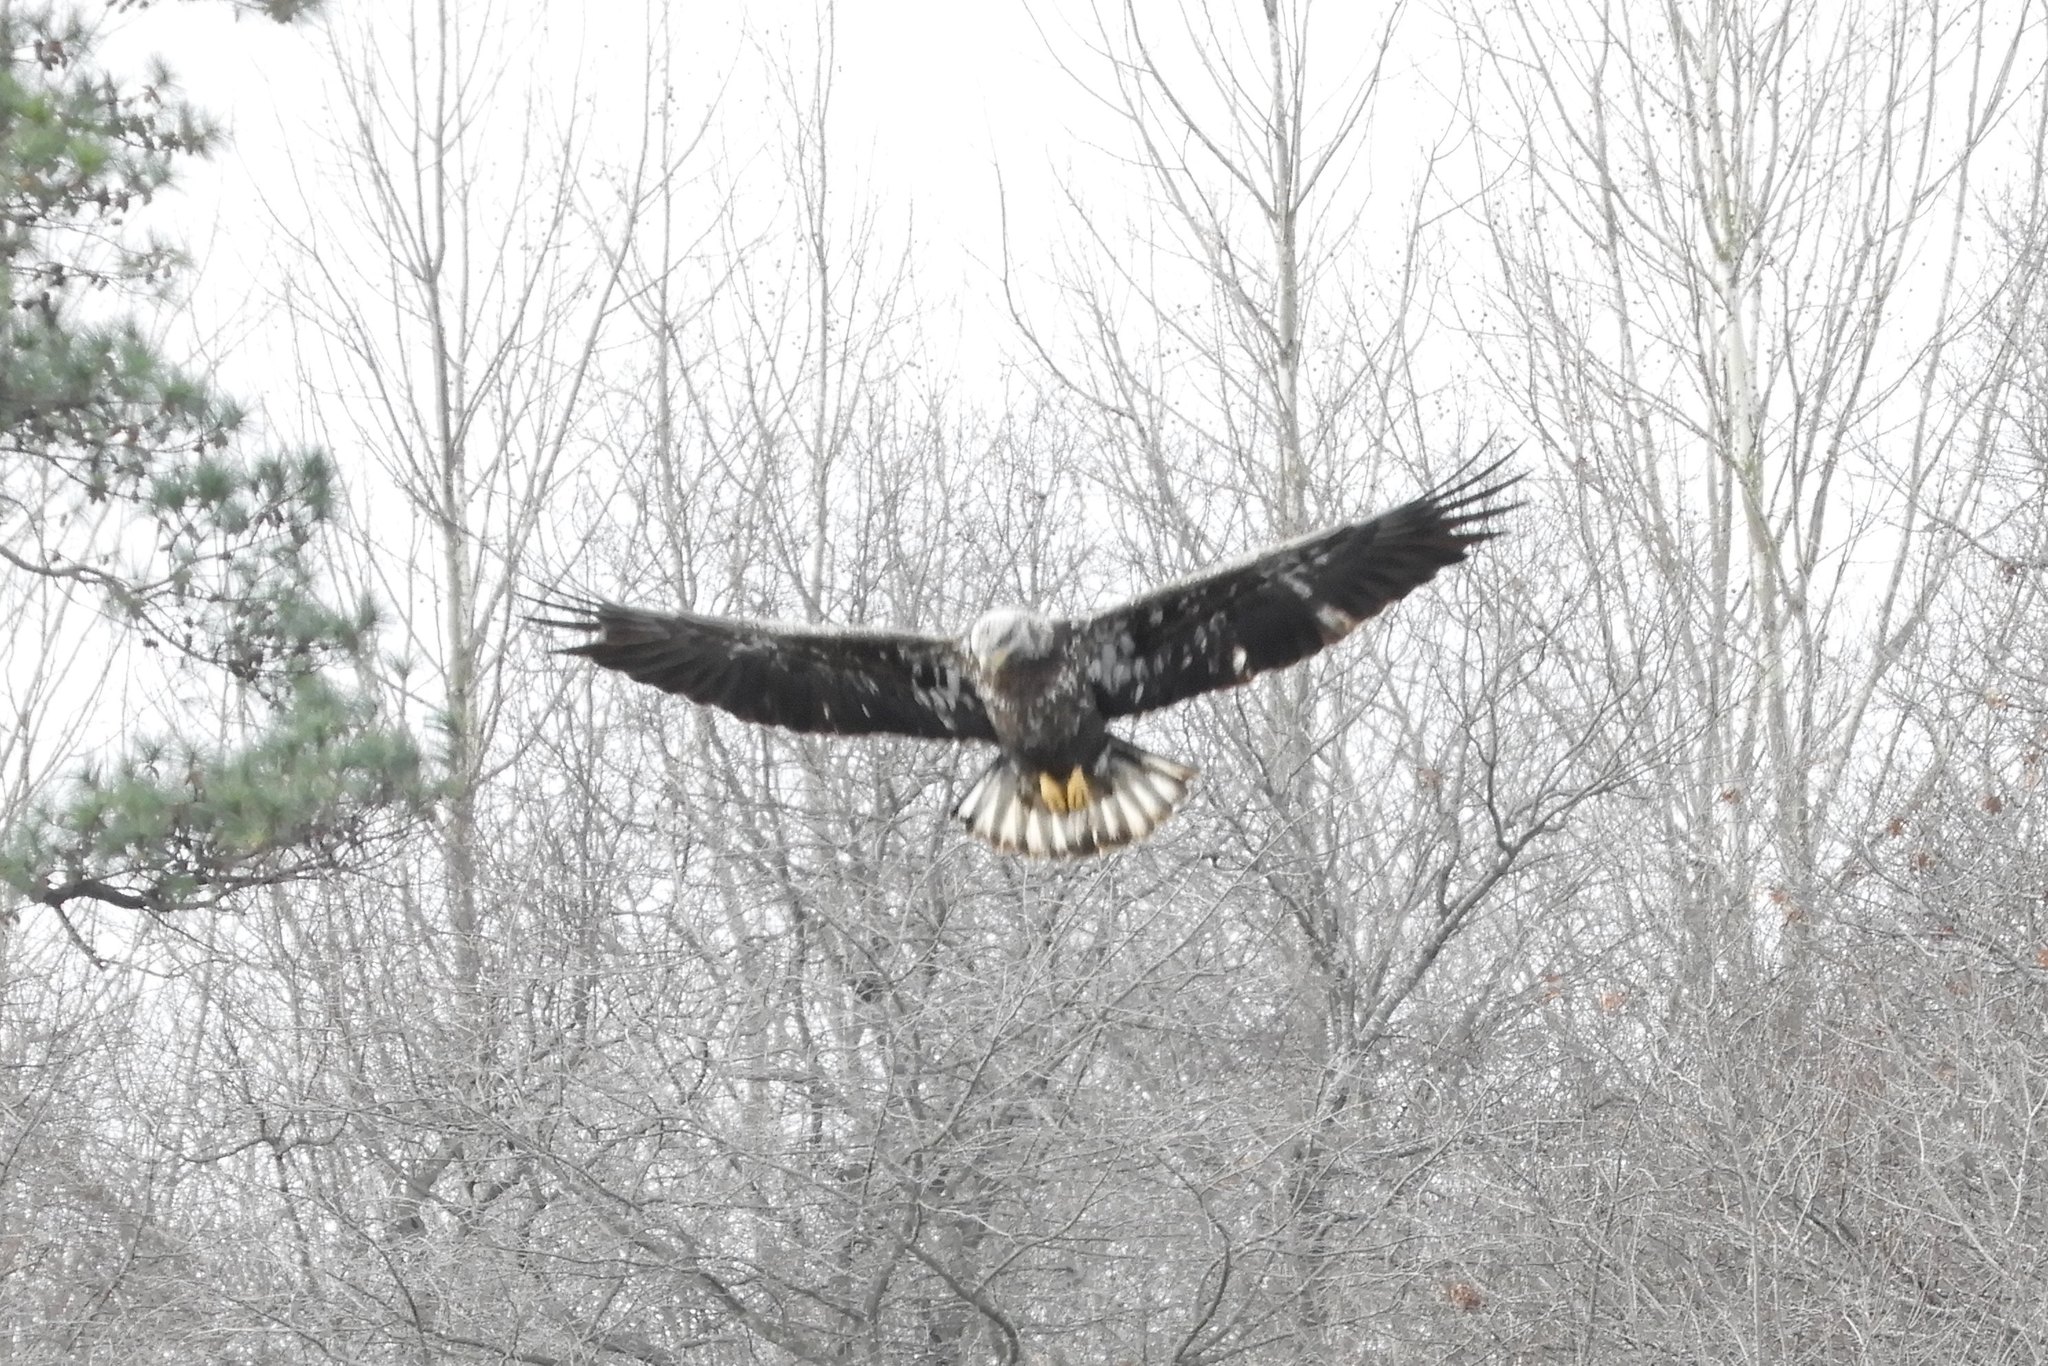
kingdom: Animalia
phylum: Chordata
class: Aves
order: Accipitriformes
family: Accipitridae
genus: Haliaeetus
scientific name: Haliaeetus leucocephalus
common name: Bald eagle
